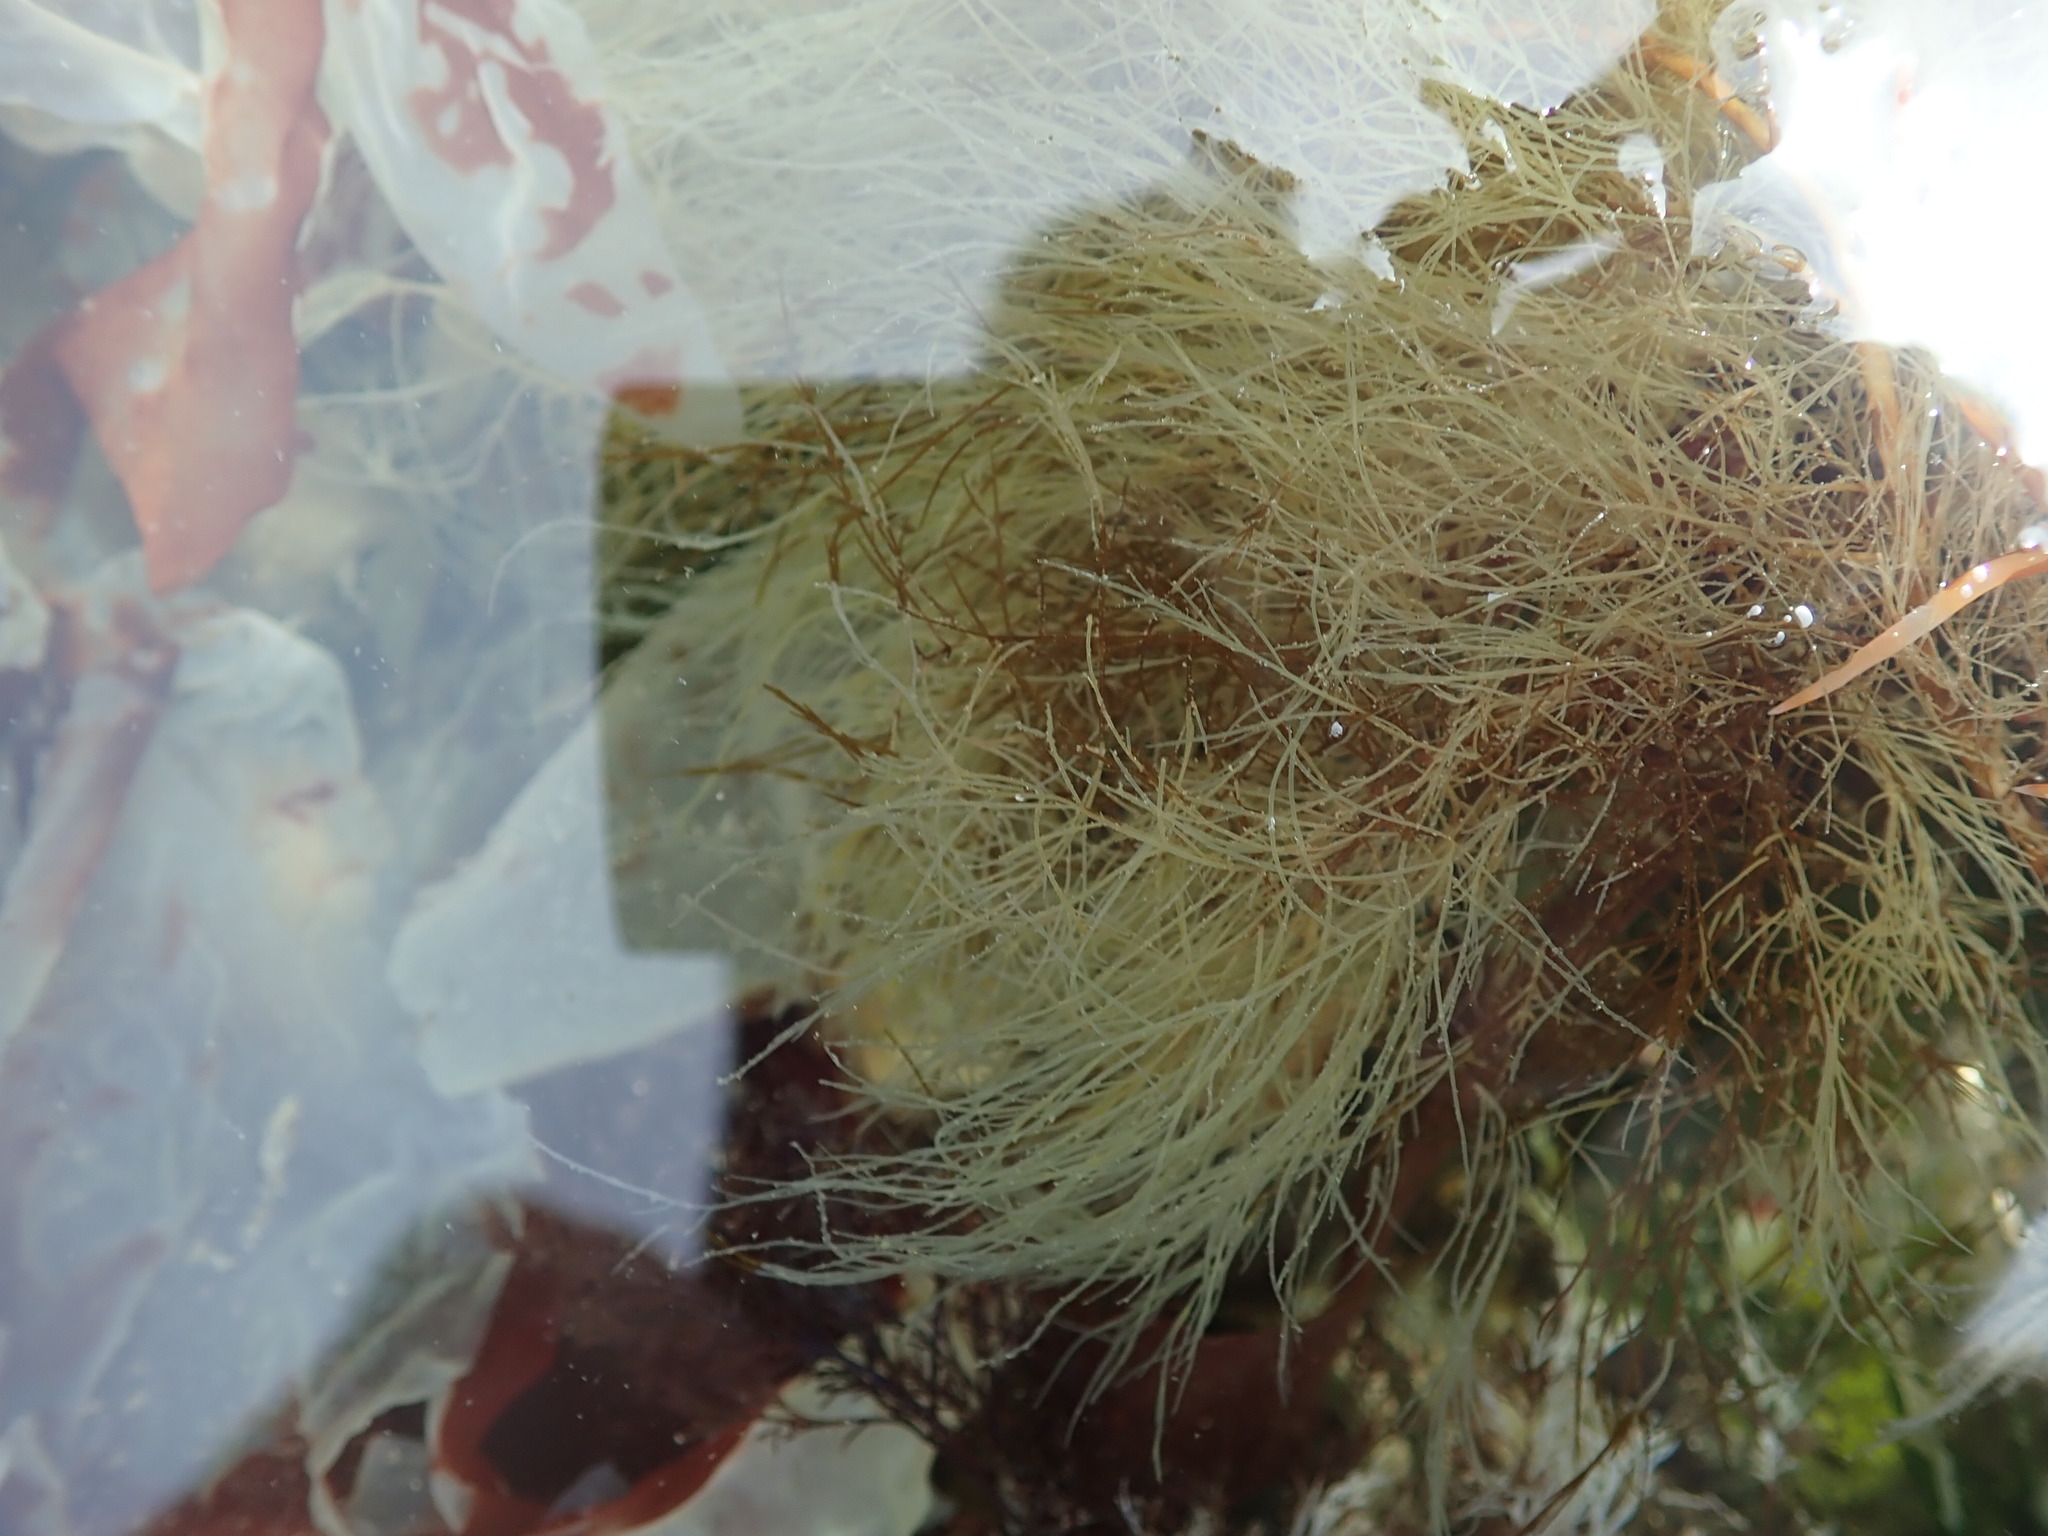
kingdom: Chromista
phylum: Ochrophyta
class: Phaeophyceae
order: Desmarestiales
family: Desmarestiaceae
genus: Desmarestia
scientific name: Desmarestia viridis
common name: Stringy acid kelp
